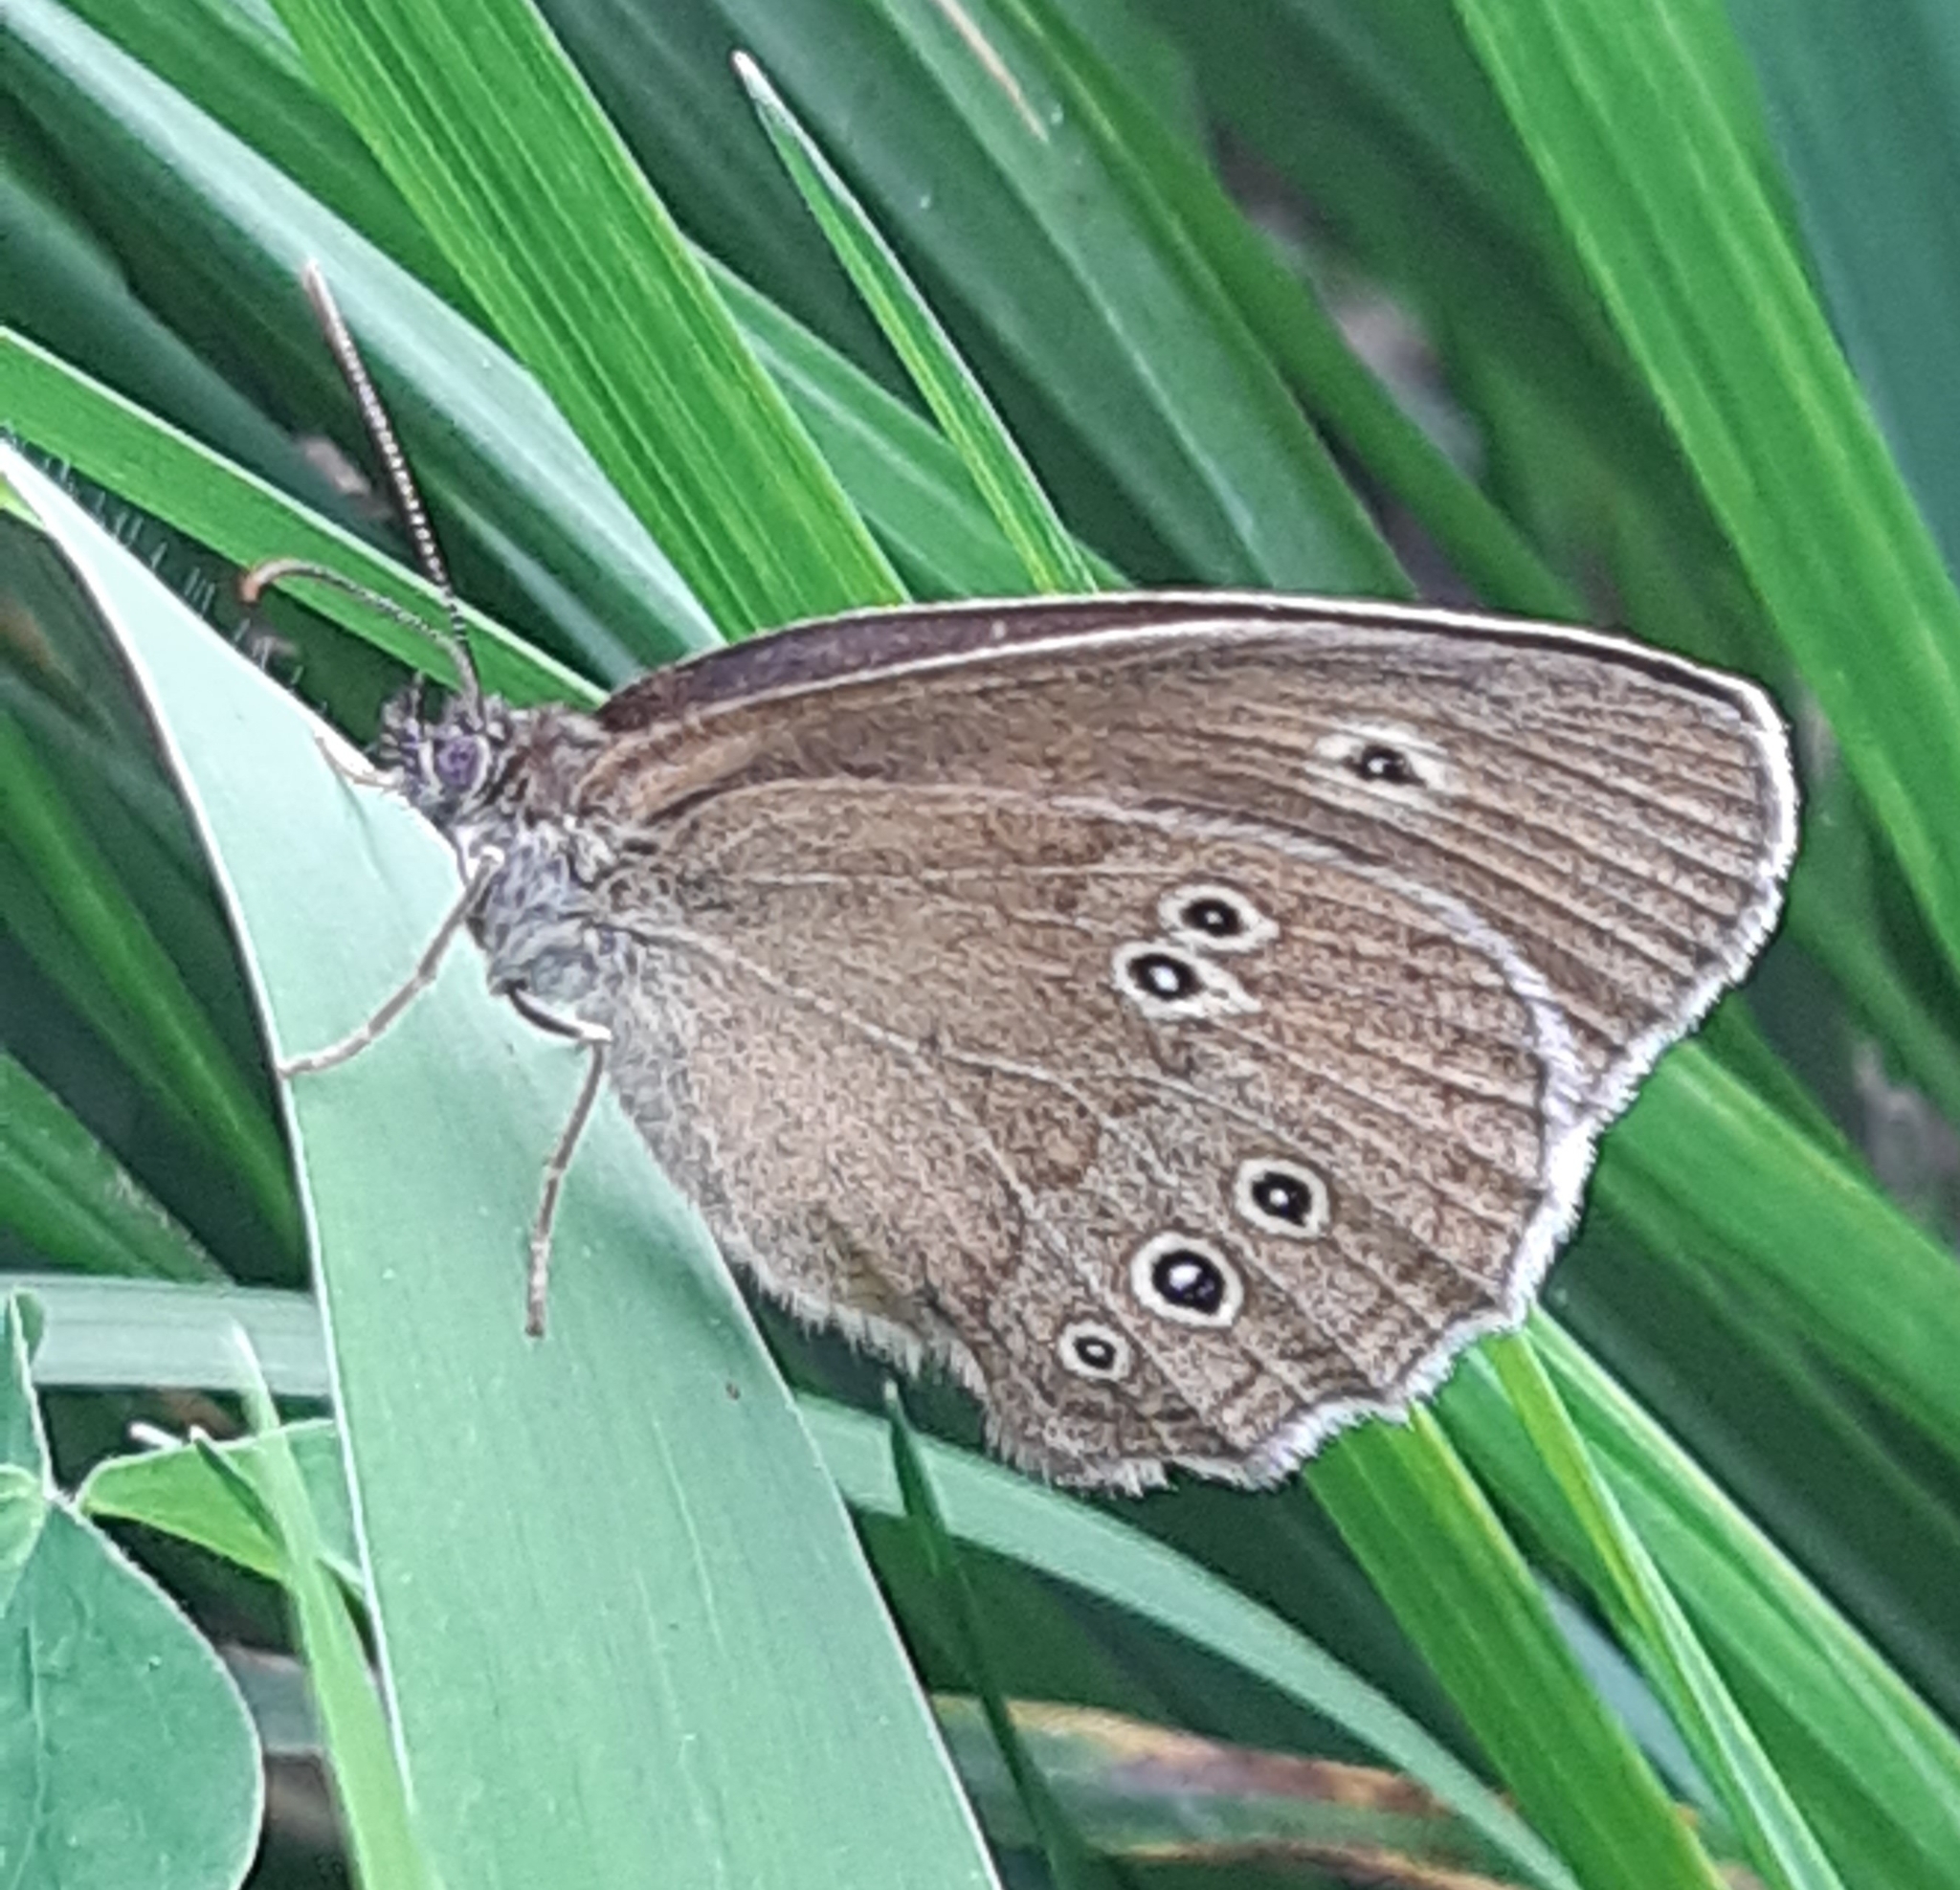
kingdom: Animalia
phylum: Arthropoda
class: Insecta
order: Lepidoptera
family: Nymphalidae
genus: Aphantopus
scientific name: Aphantopus hyperantus
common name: Ringlet
